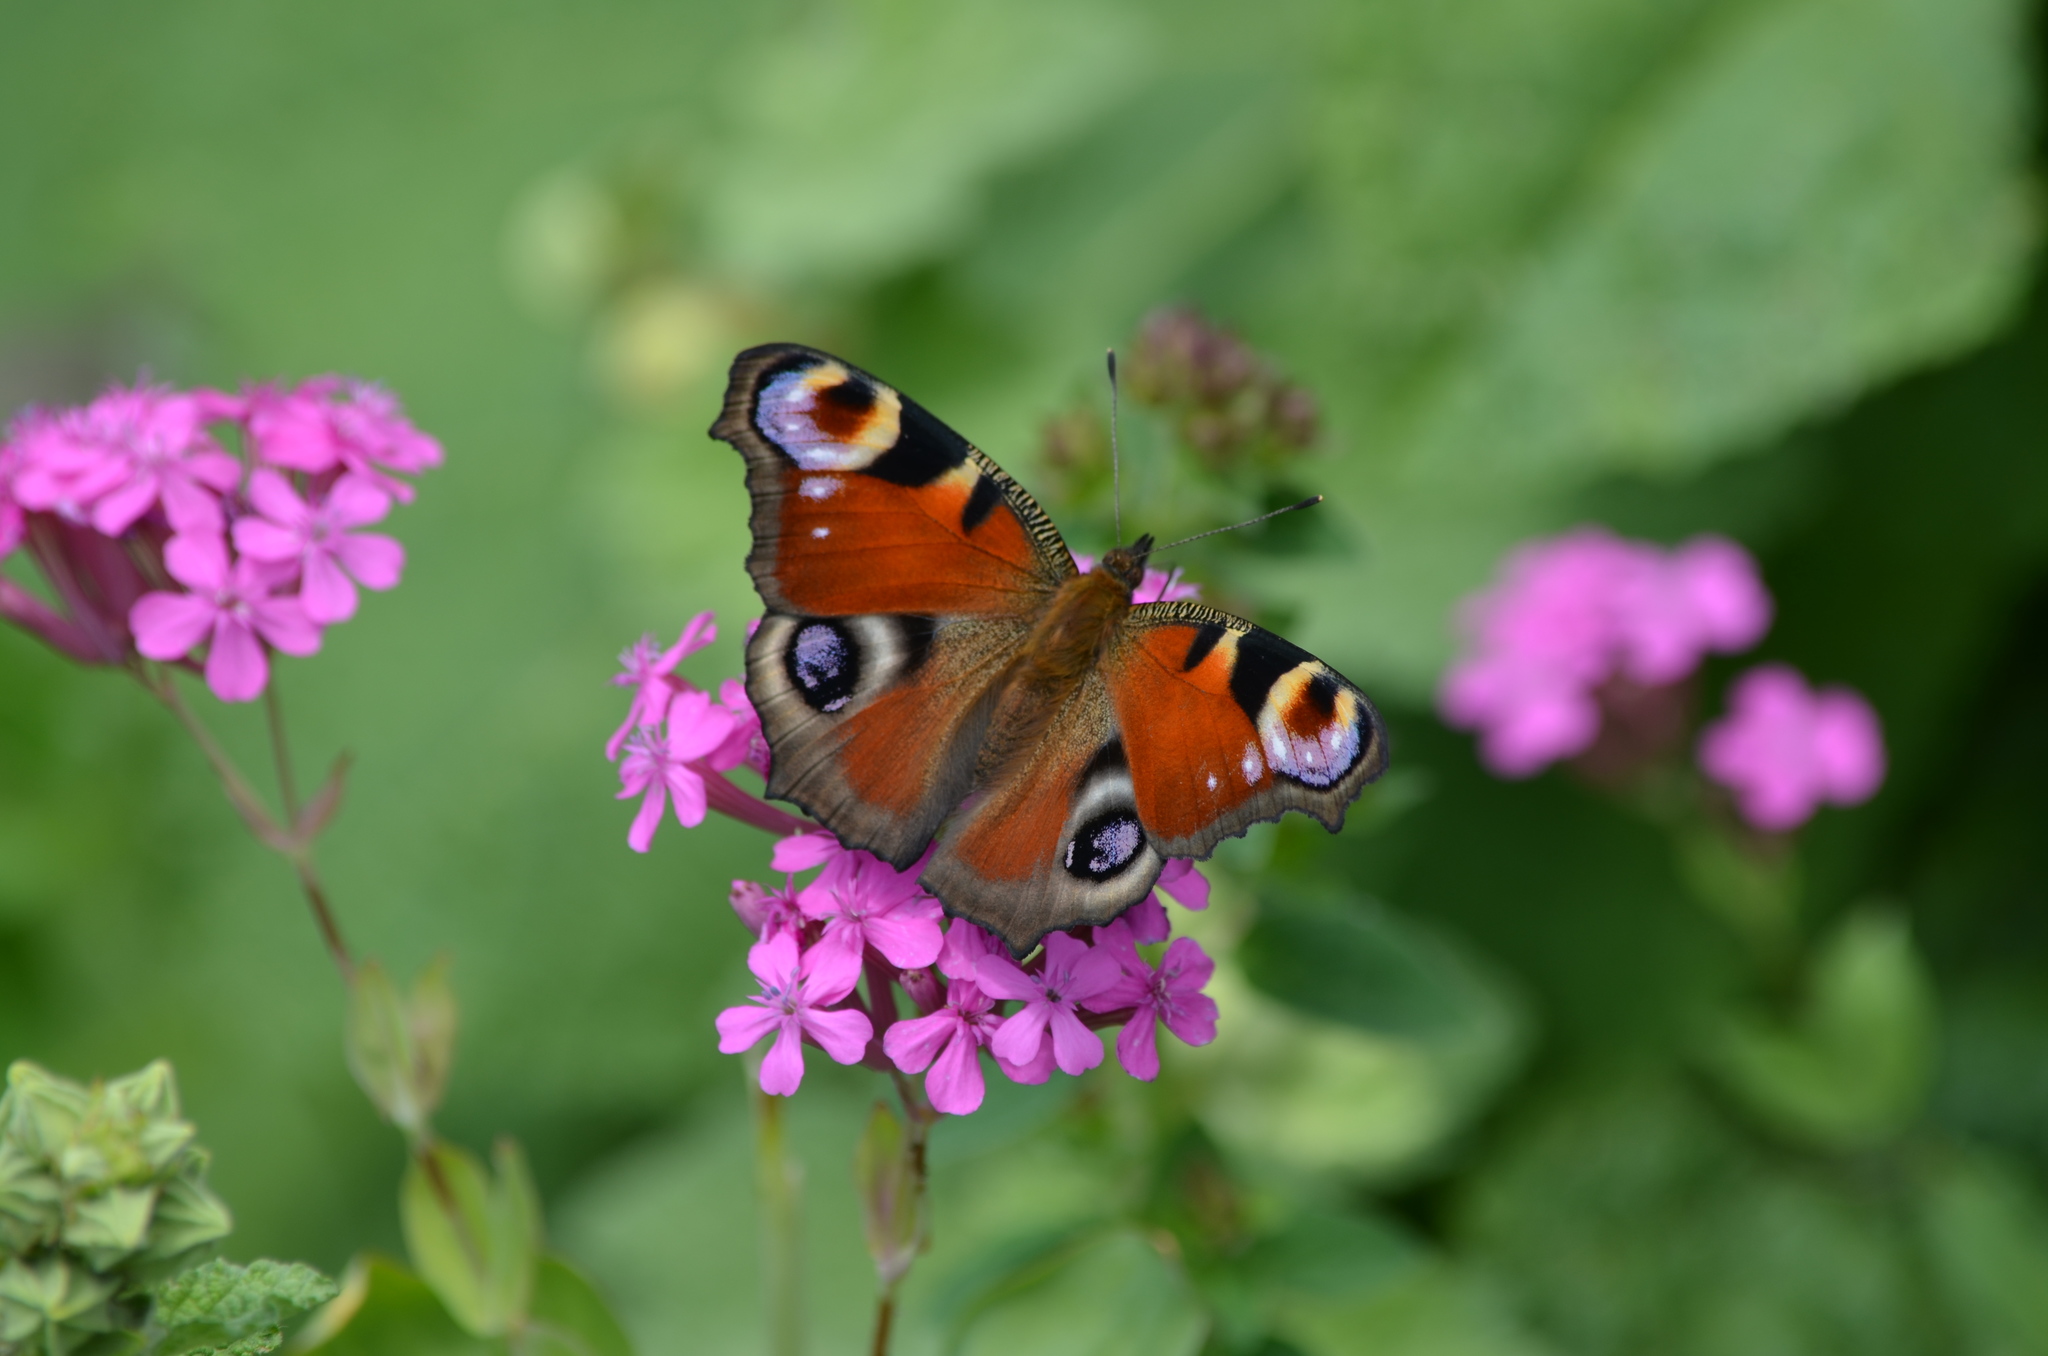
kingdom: Animalia
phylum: Arthropoda
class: Insecta
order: Lepidoptera
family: Nymphalidae
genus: Aglais
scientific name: Aglais io
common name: Peacock
